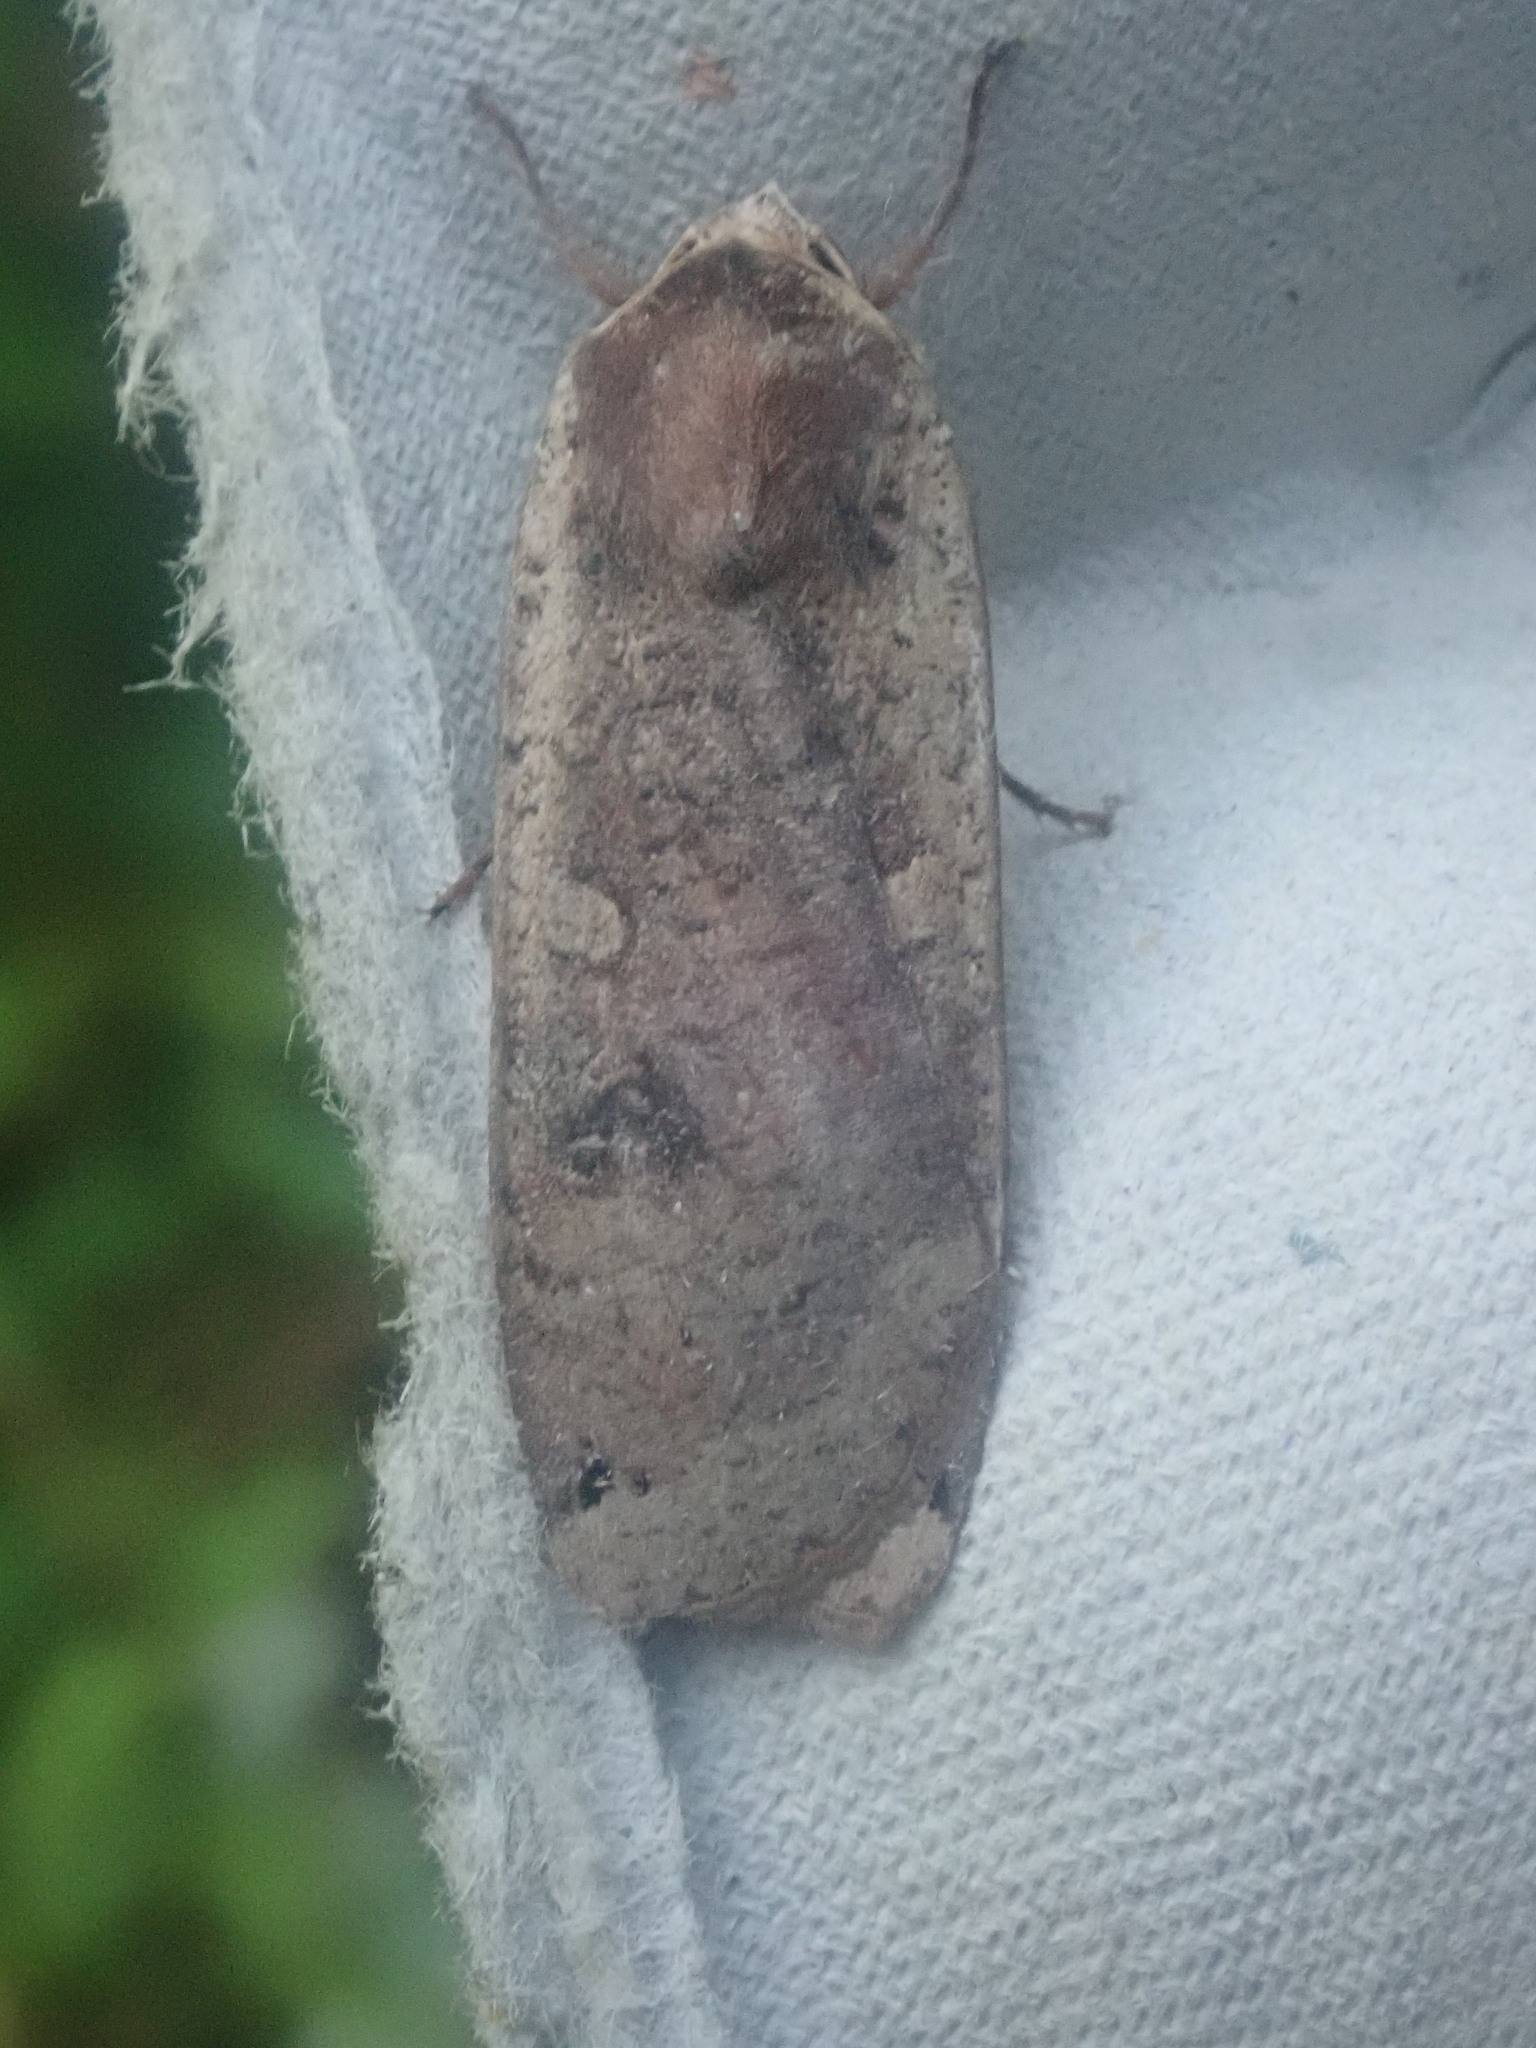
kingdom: Animalia
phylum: Arthropoda
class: Insecta
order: Lepidoptera
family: Noctuidae
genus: Noctua
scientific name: Noctua pronuba
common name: Large yellow underwing
